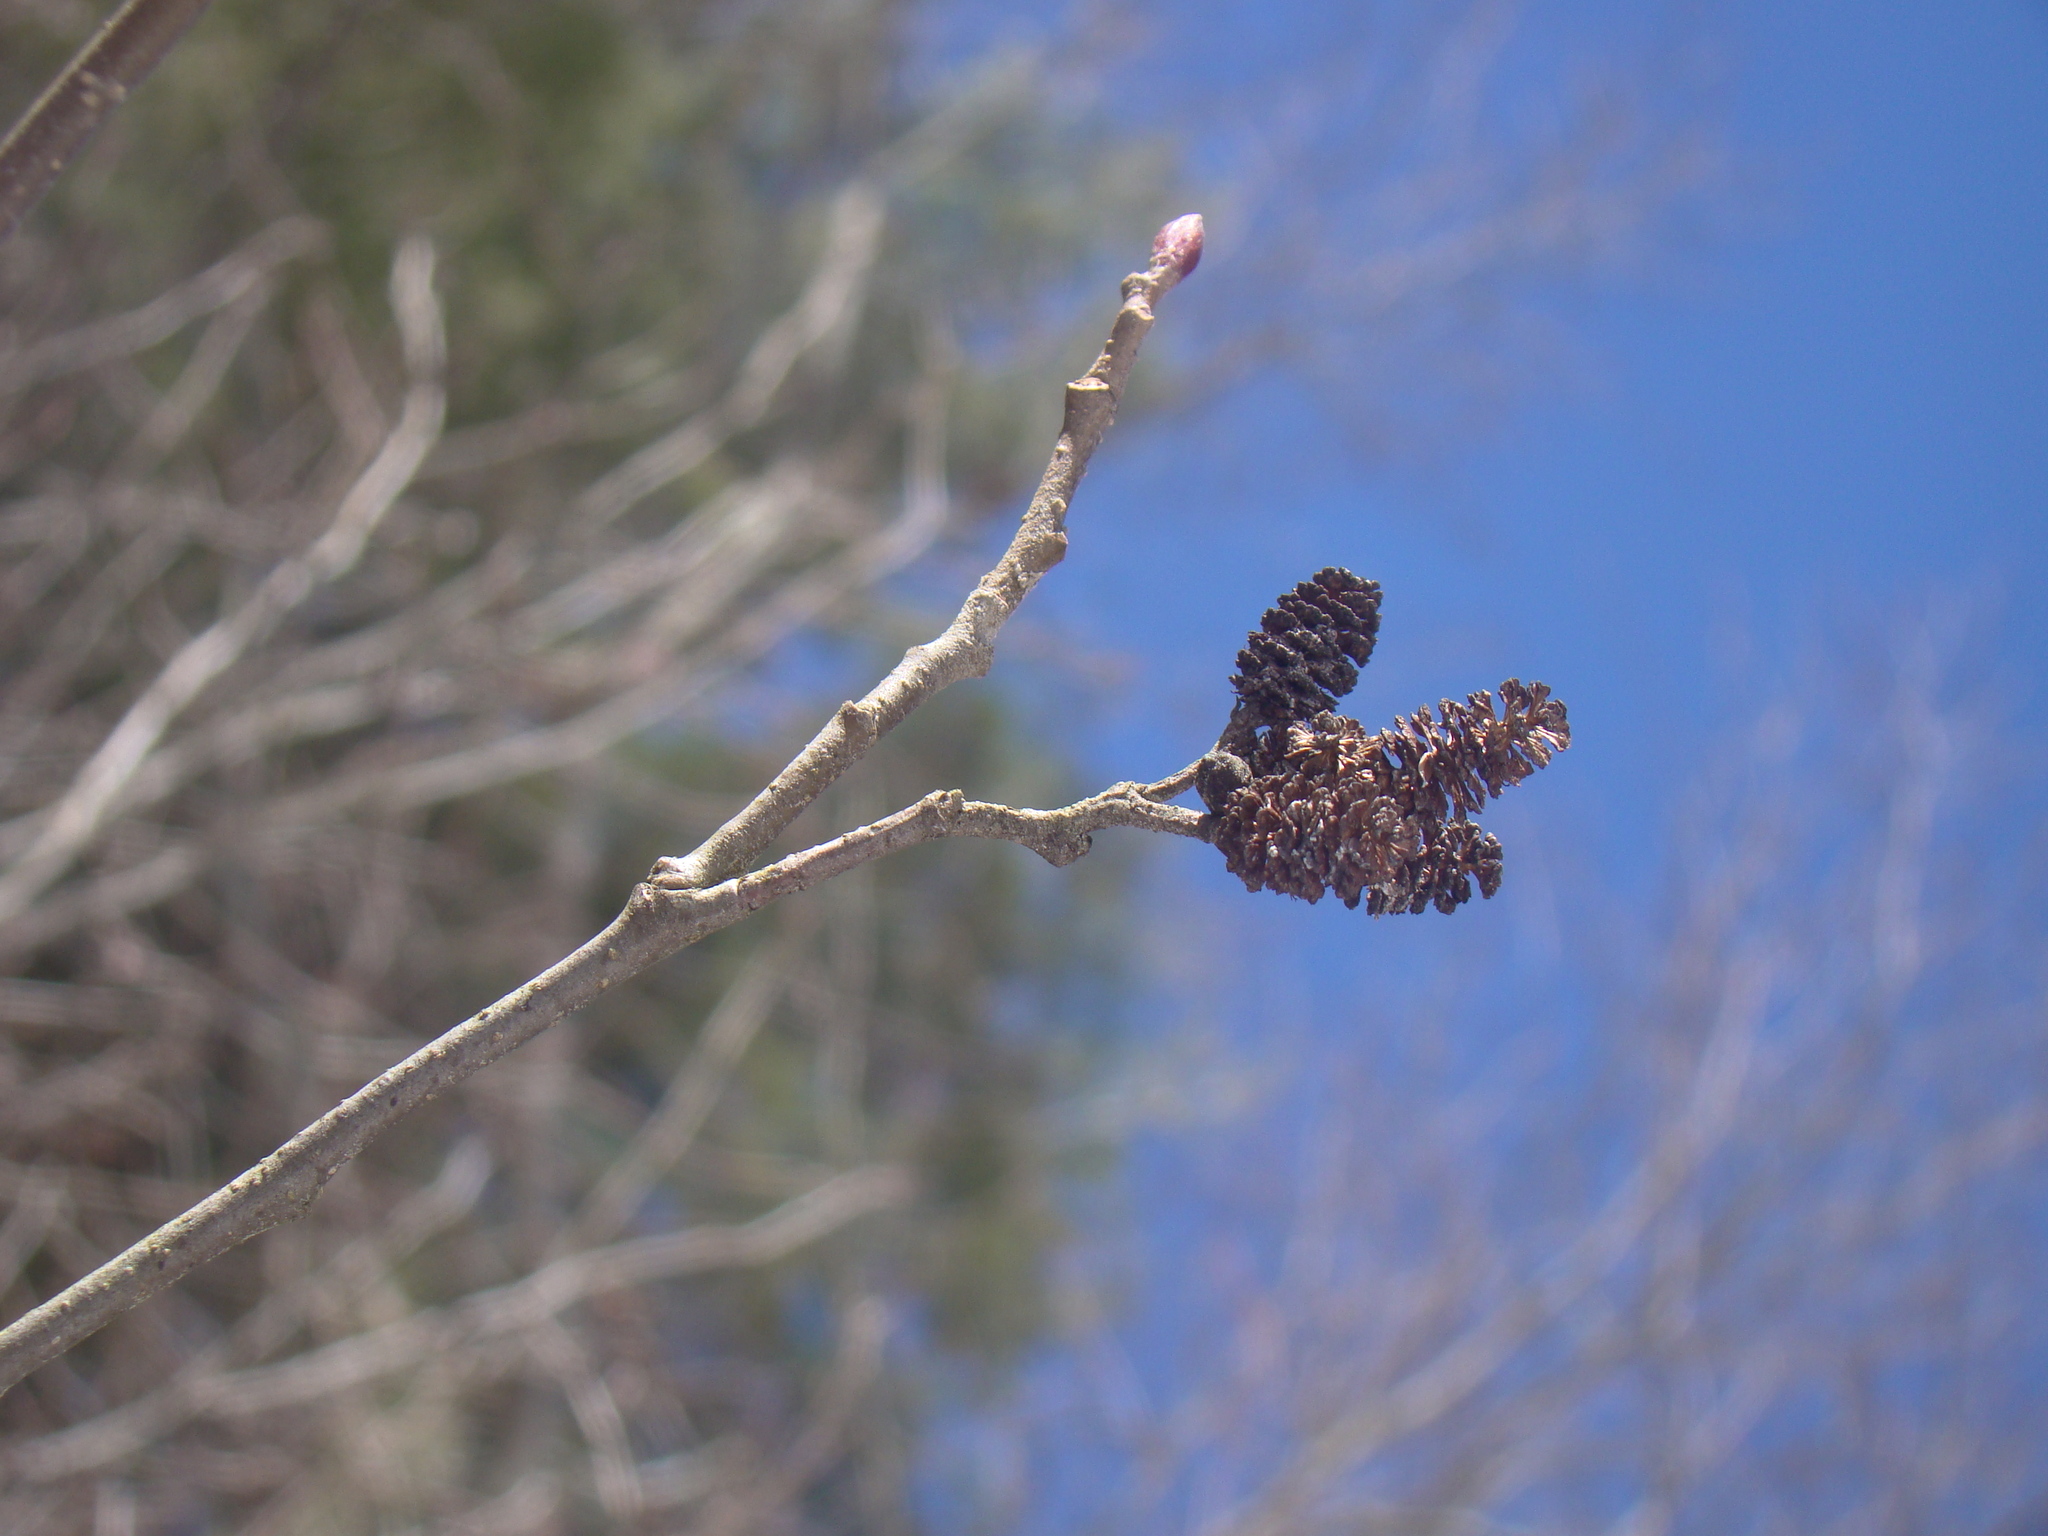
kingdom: Plantae
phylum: Tracheophyta
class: Magnoliopsida
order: Fagales
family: Betulaceae
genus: Alnus
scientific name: Alnus serrulata
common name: Hazel alder
